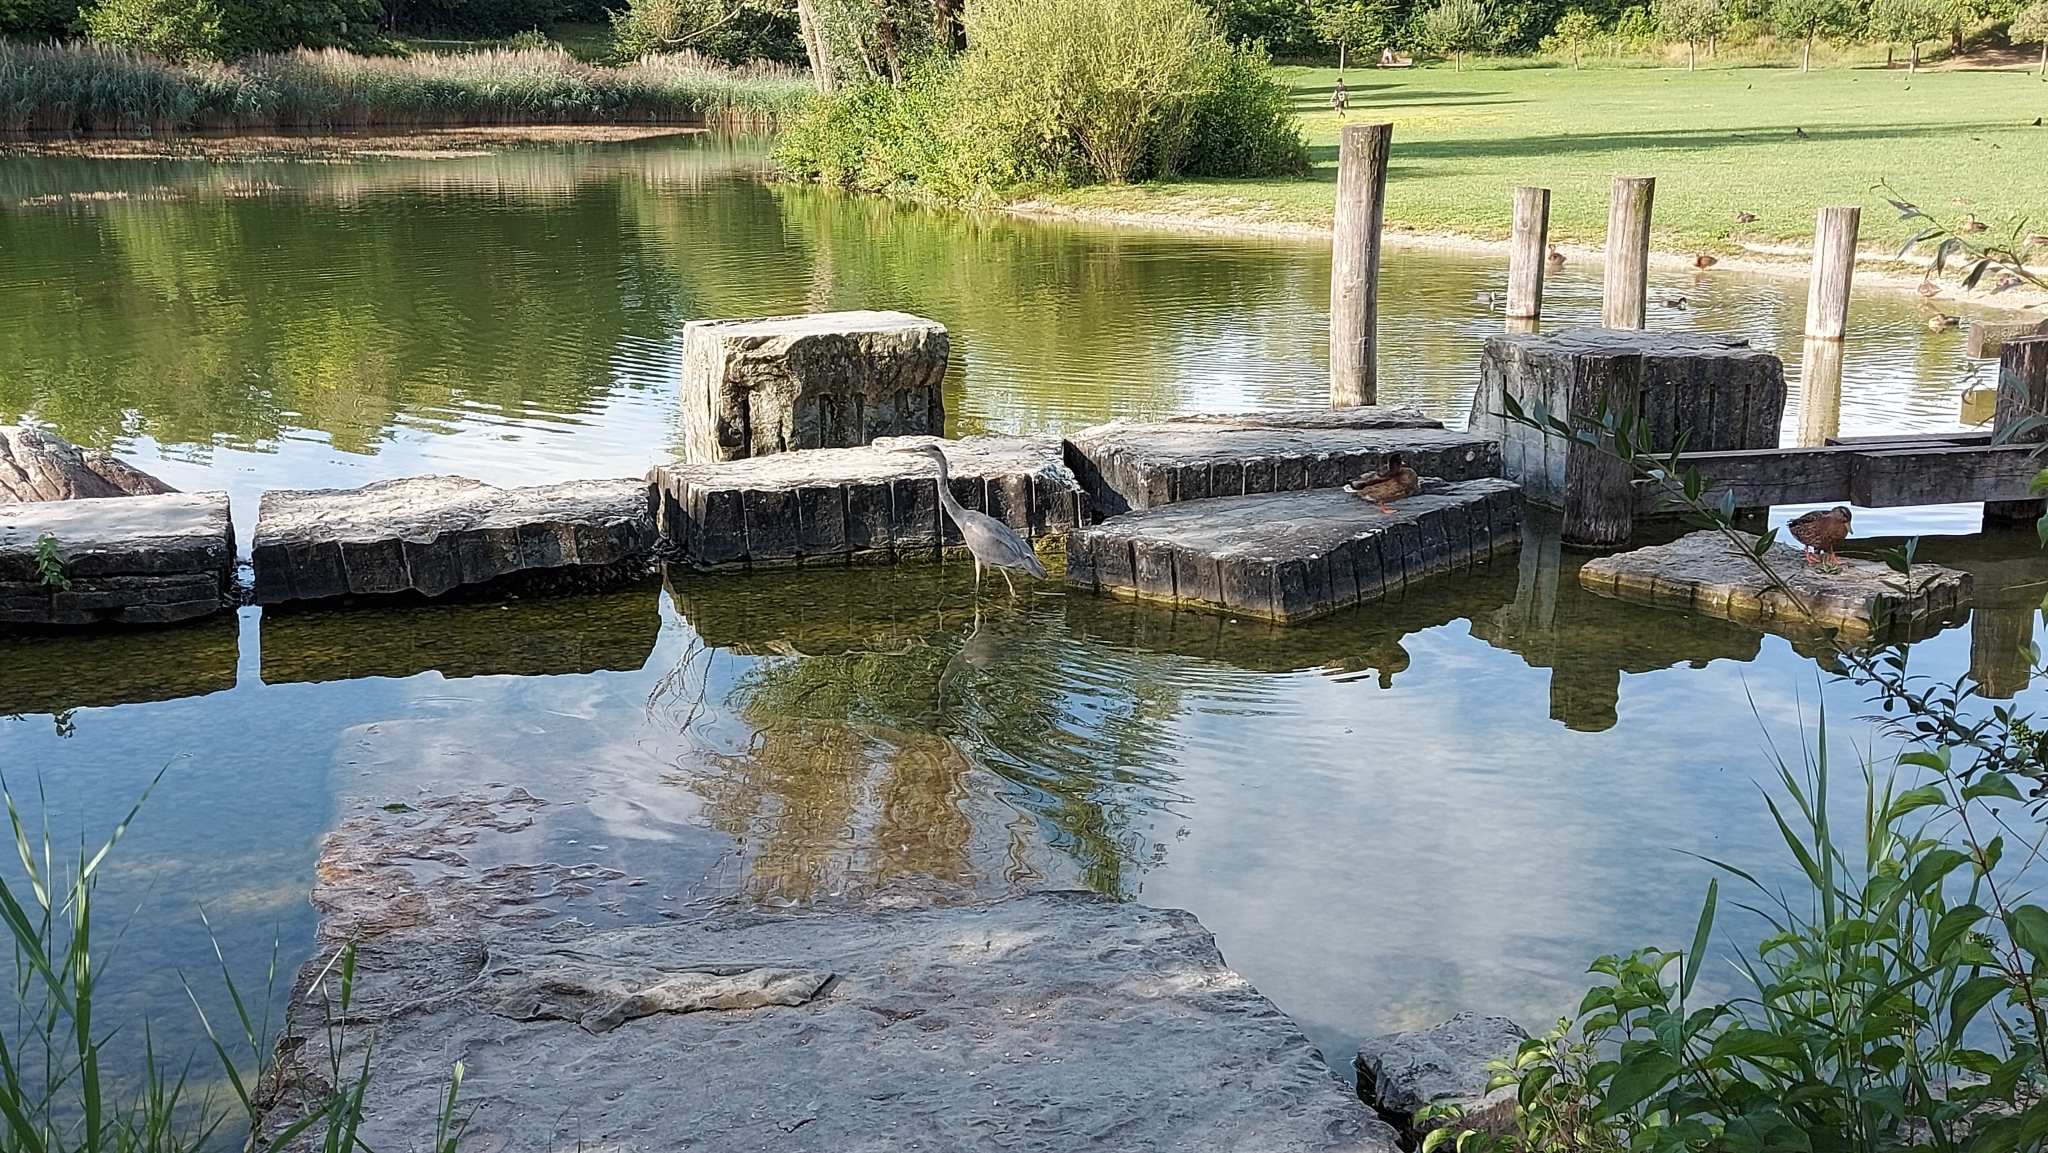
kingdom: Animalia
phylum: Chordata
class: Aves
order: Pelecaniformes
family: Ardeidae
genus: Ardea
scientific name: Ardea cinerea
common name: Grey heron
